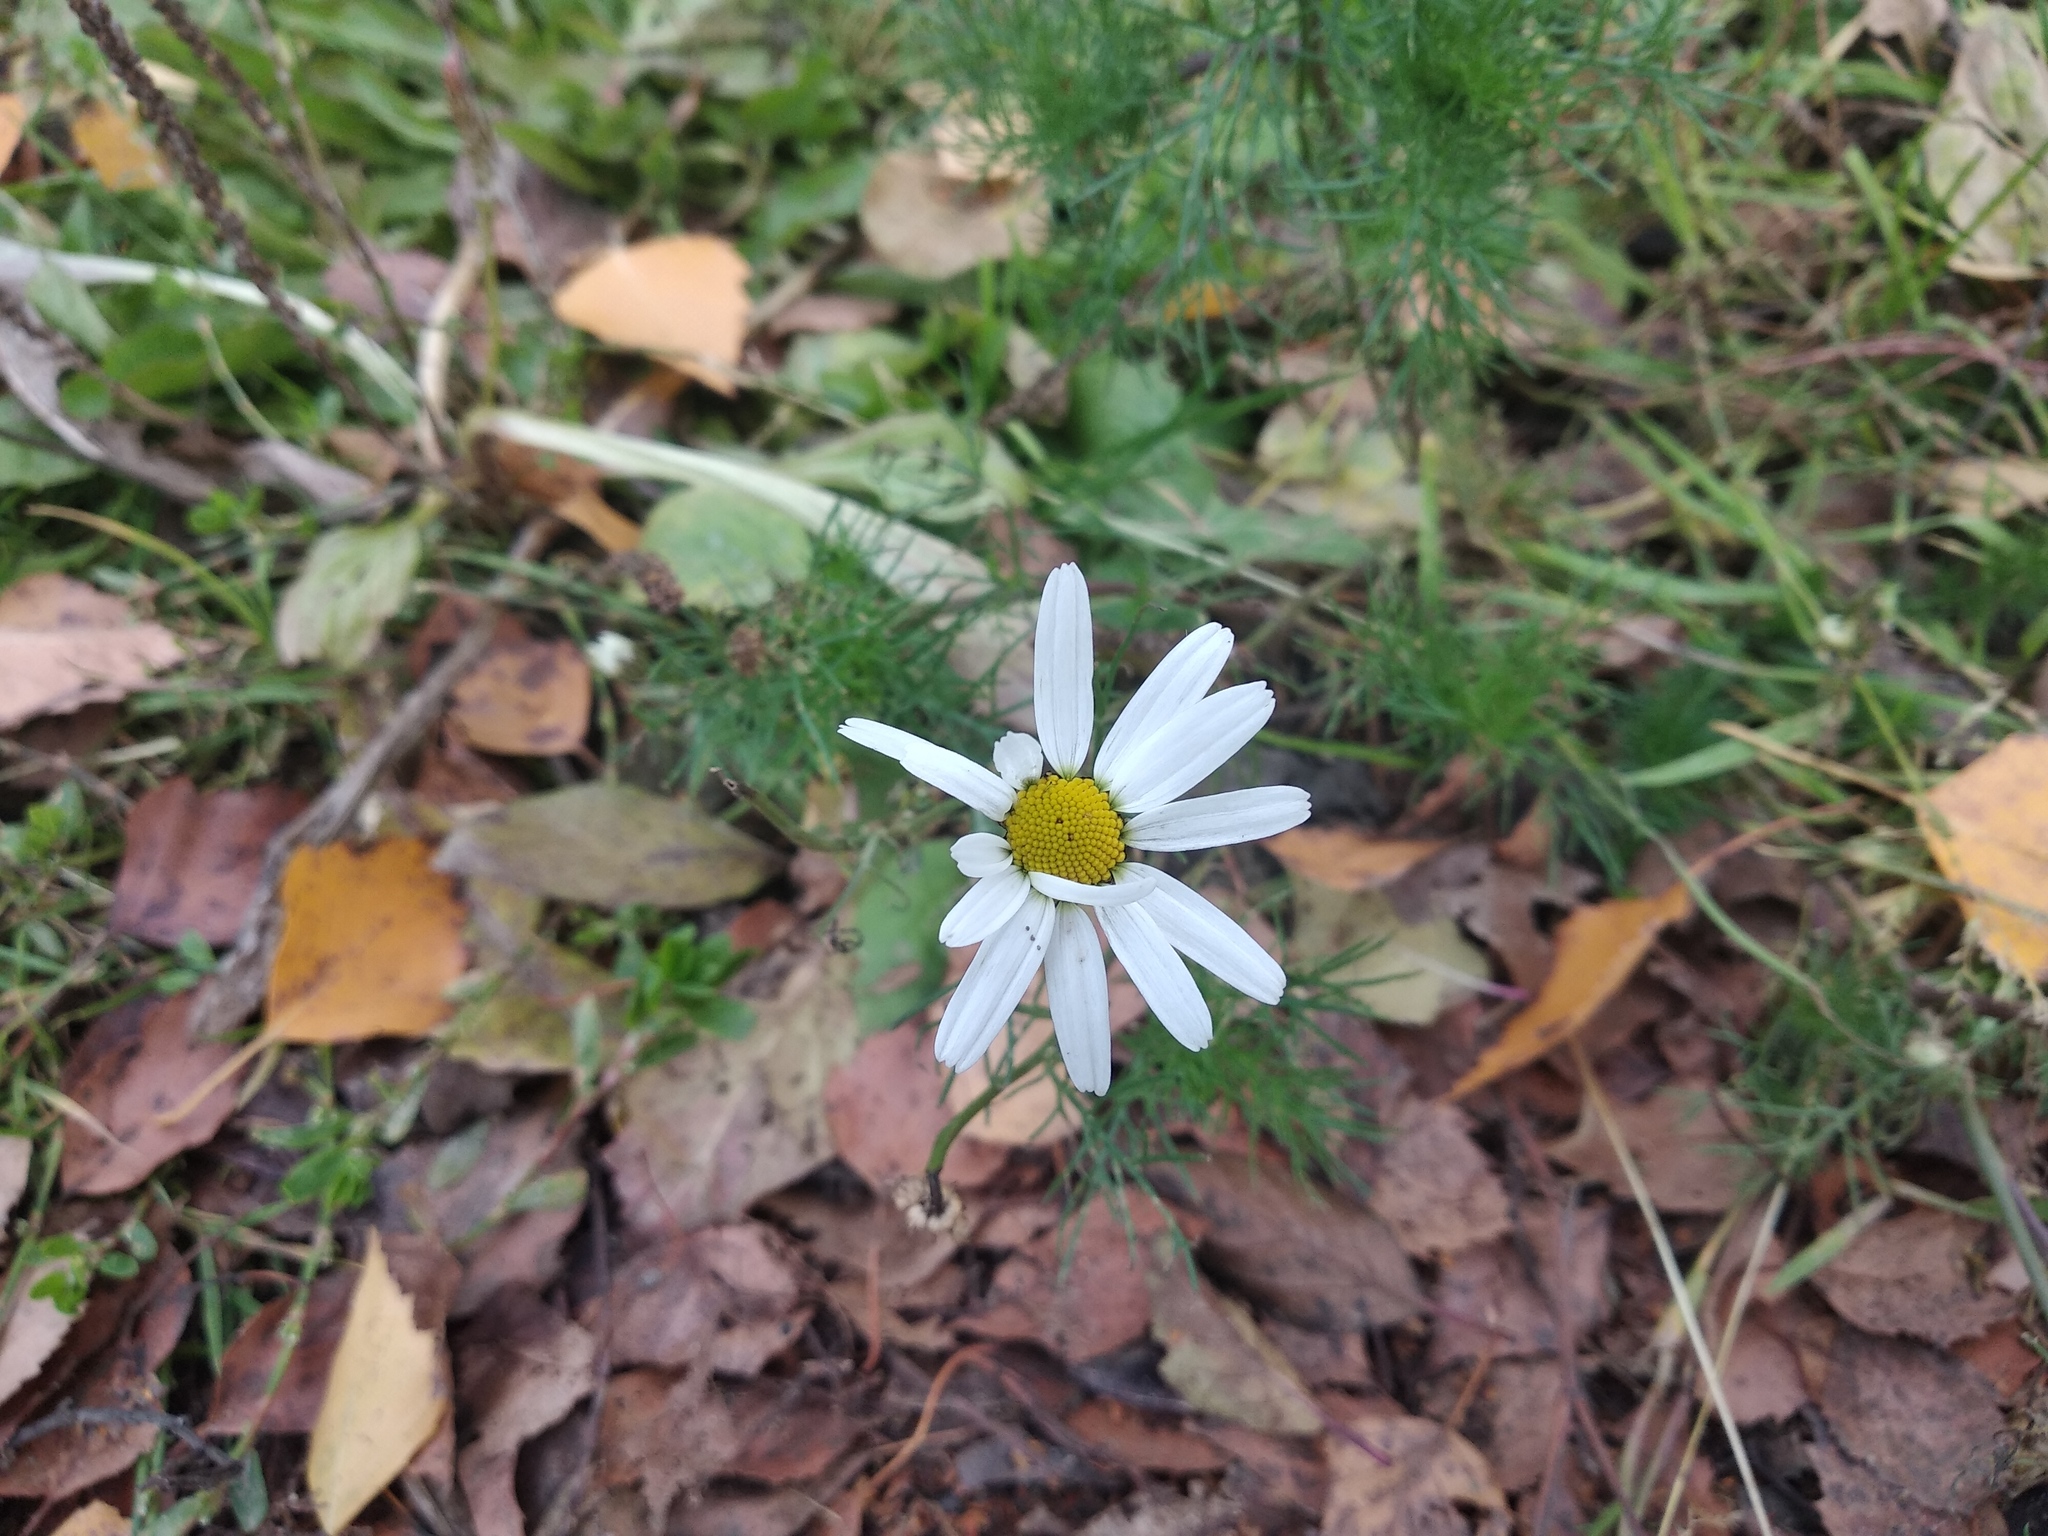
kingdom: Plantae
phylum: Tracheophyta
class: Magnoliopsida
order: Asterales
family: Asteraceae
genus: Tripleurospermum
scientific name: Tripleurospermum inodorum
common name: Scentless mayweed
